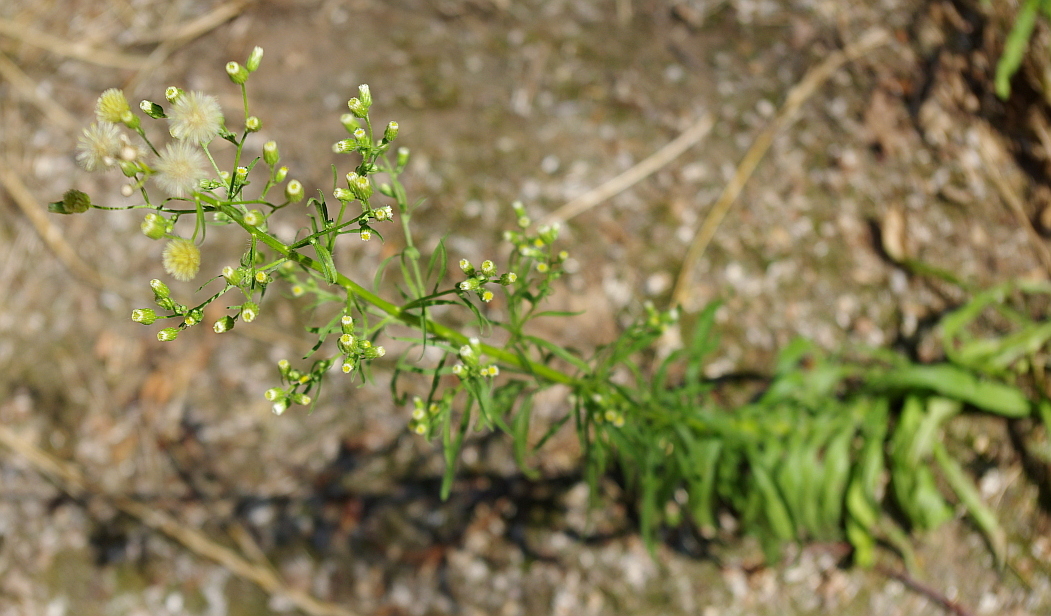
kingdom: Plantae
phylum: Tracheophyta
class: Magnoliopsida
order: Asterales
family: Asteraceae
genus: Erigeron
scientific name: Erigeron canadensis
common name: Canadian fleabane
